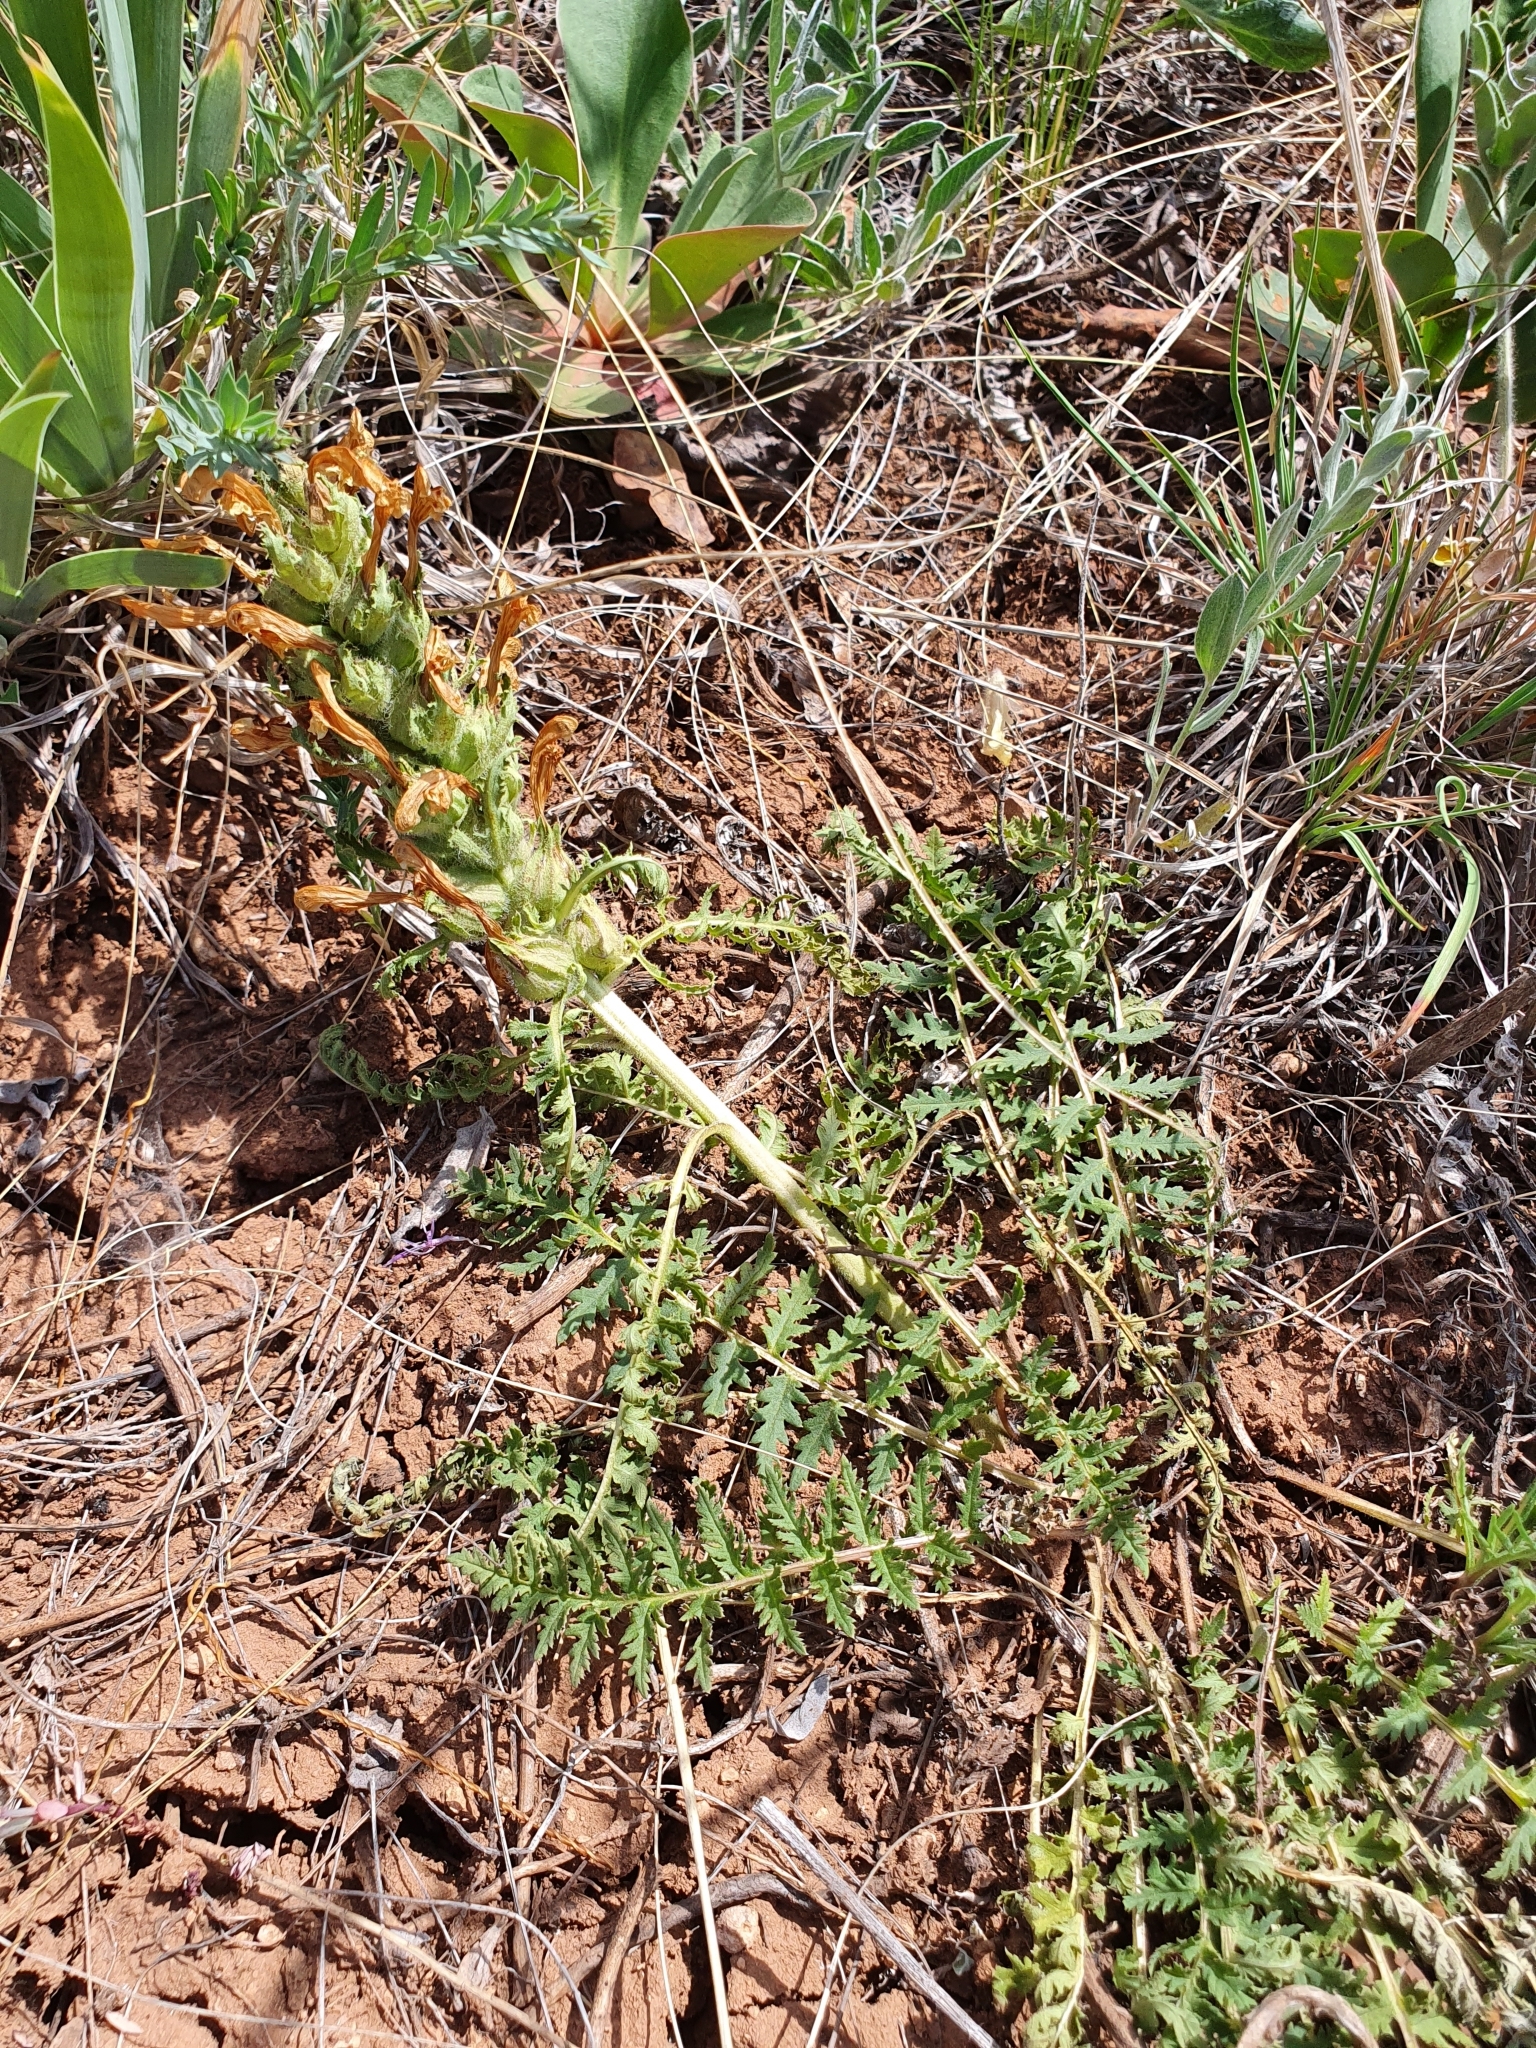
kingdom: Plantae
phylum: Tracheophyta
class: Magnoliopsida
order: Lamiales
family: Orobanchaceae
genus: Pedicularis
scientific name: Pedicularis physocalyx
